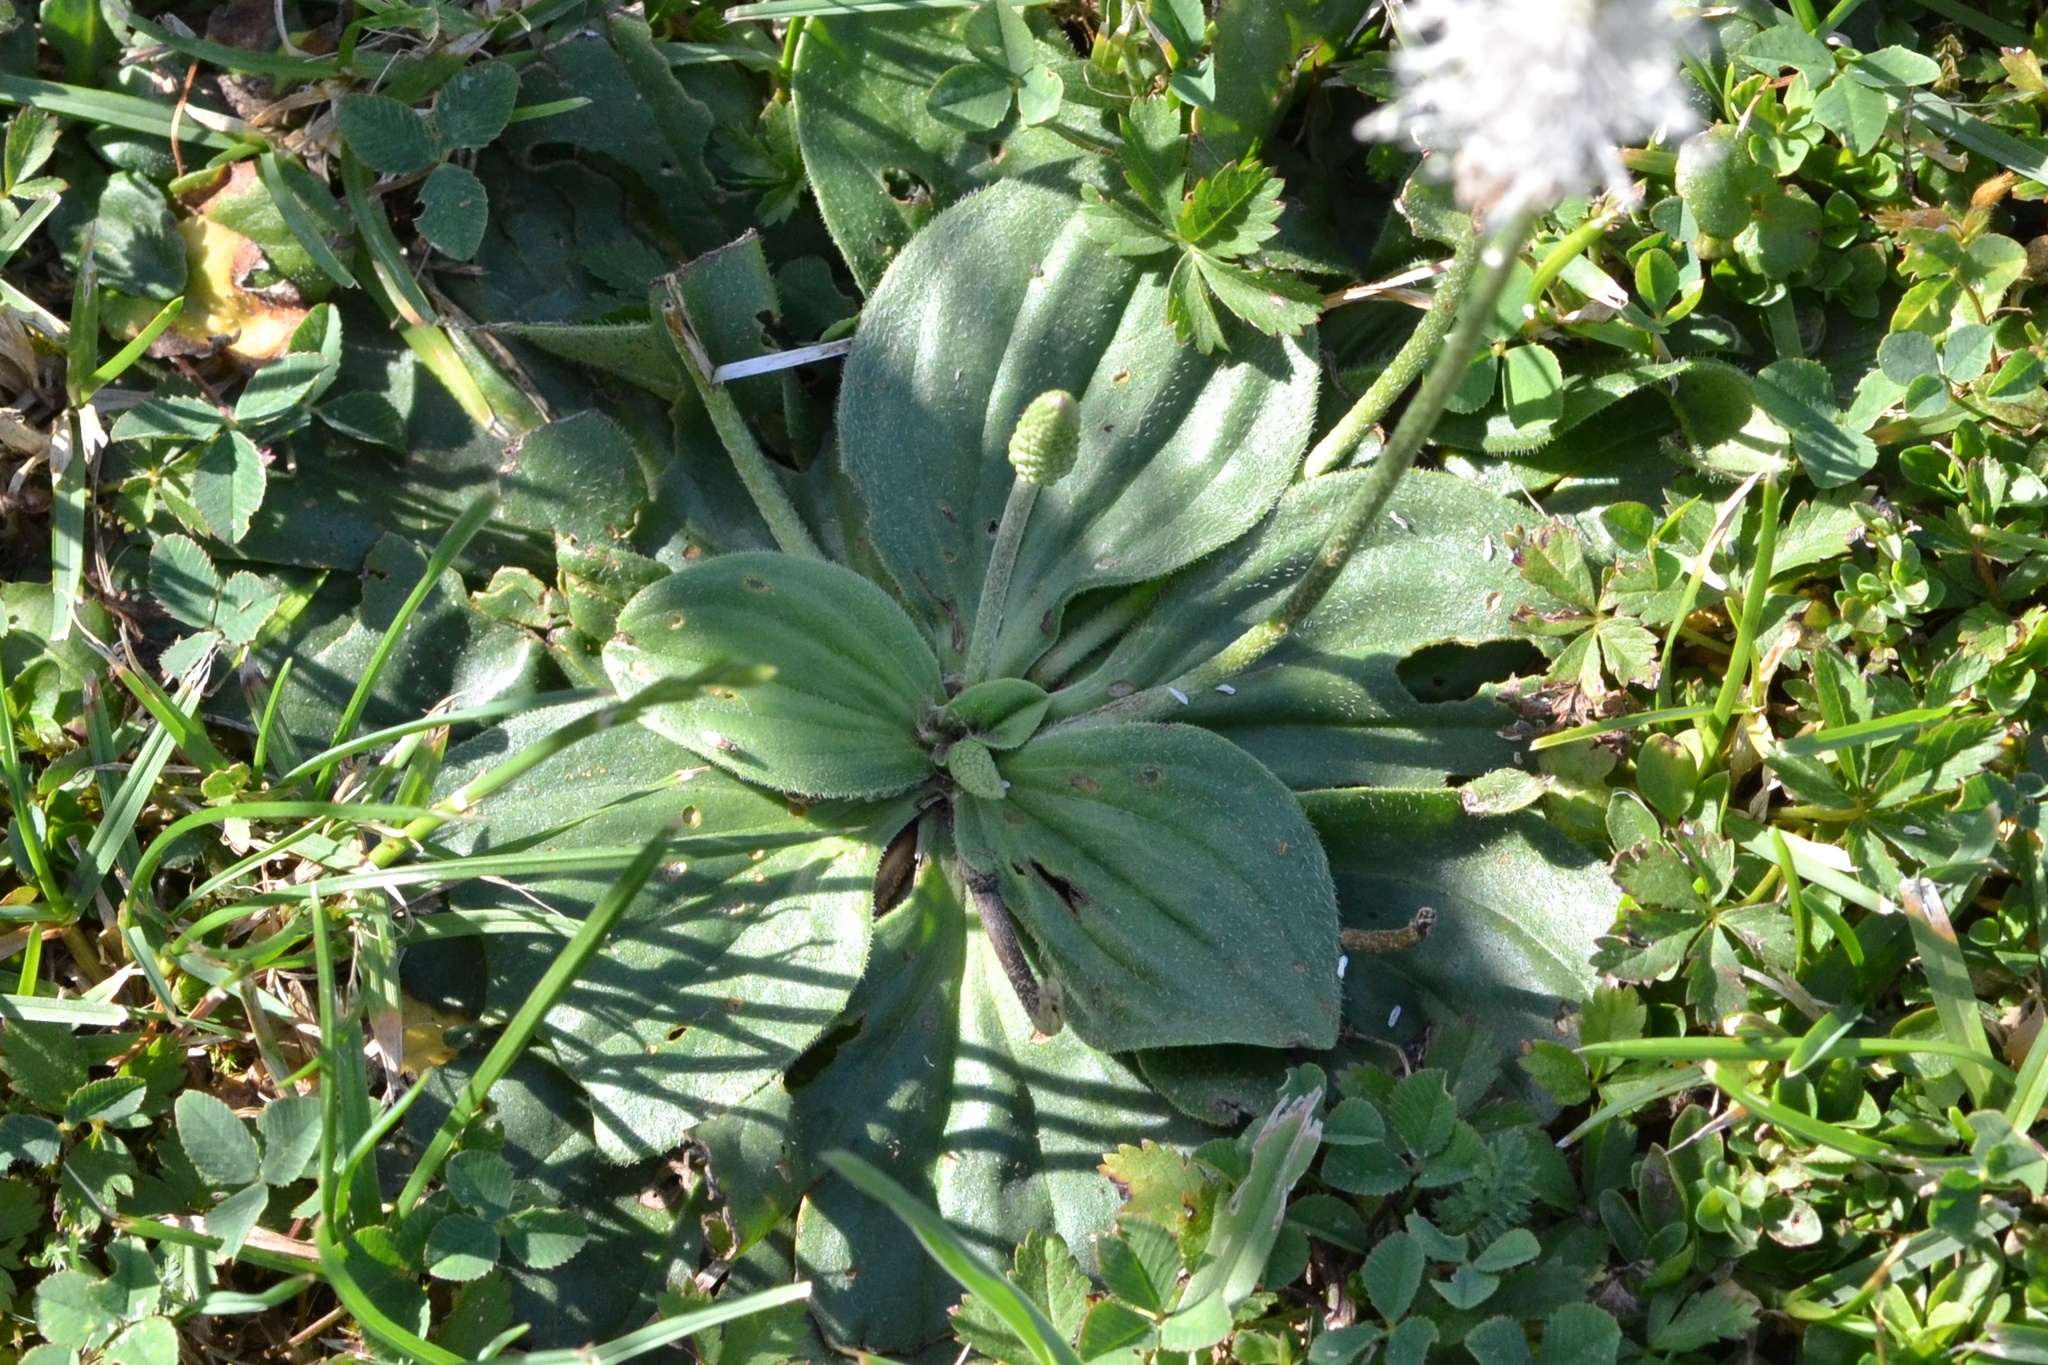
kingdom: Plantae
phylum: Tracheophyta
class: Magnoliopsida
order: Lamiales
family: Plantaginaceae
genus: Plantago
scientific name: Plantago media
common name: Hoary plantain
